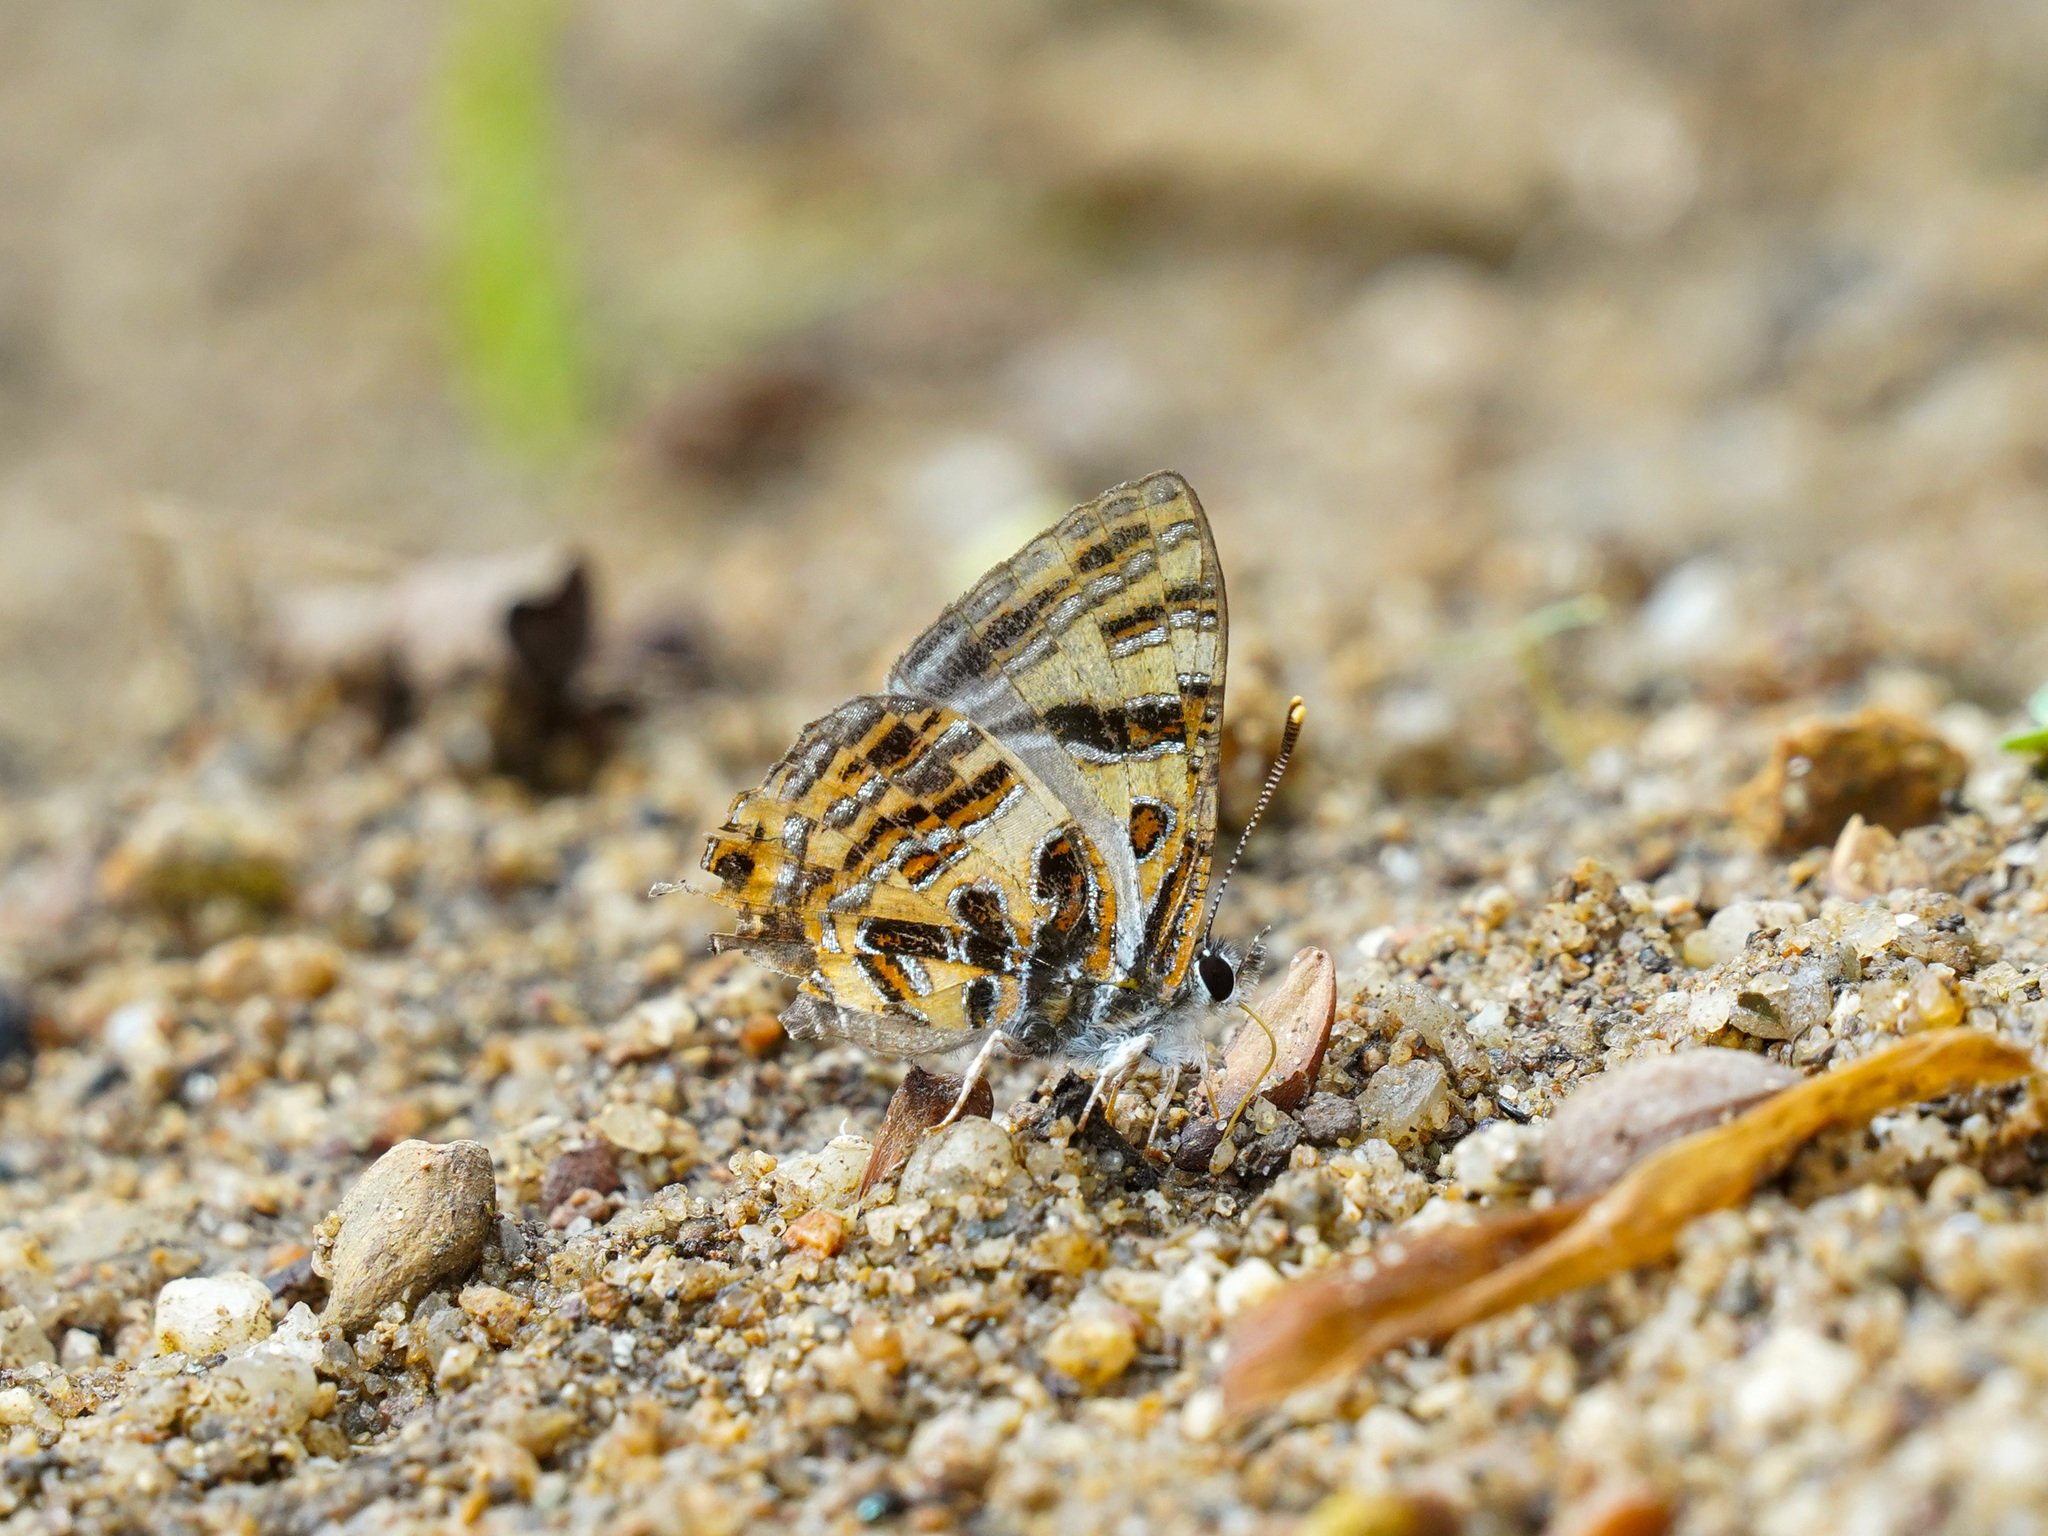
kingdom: Animalia
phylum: Arthropoda
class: Insecta
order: Lepidoptera
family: Lycaenidae
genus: Catapaecilma
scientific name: Catapaecilma subochrea
